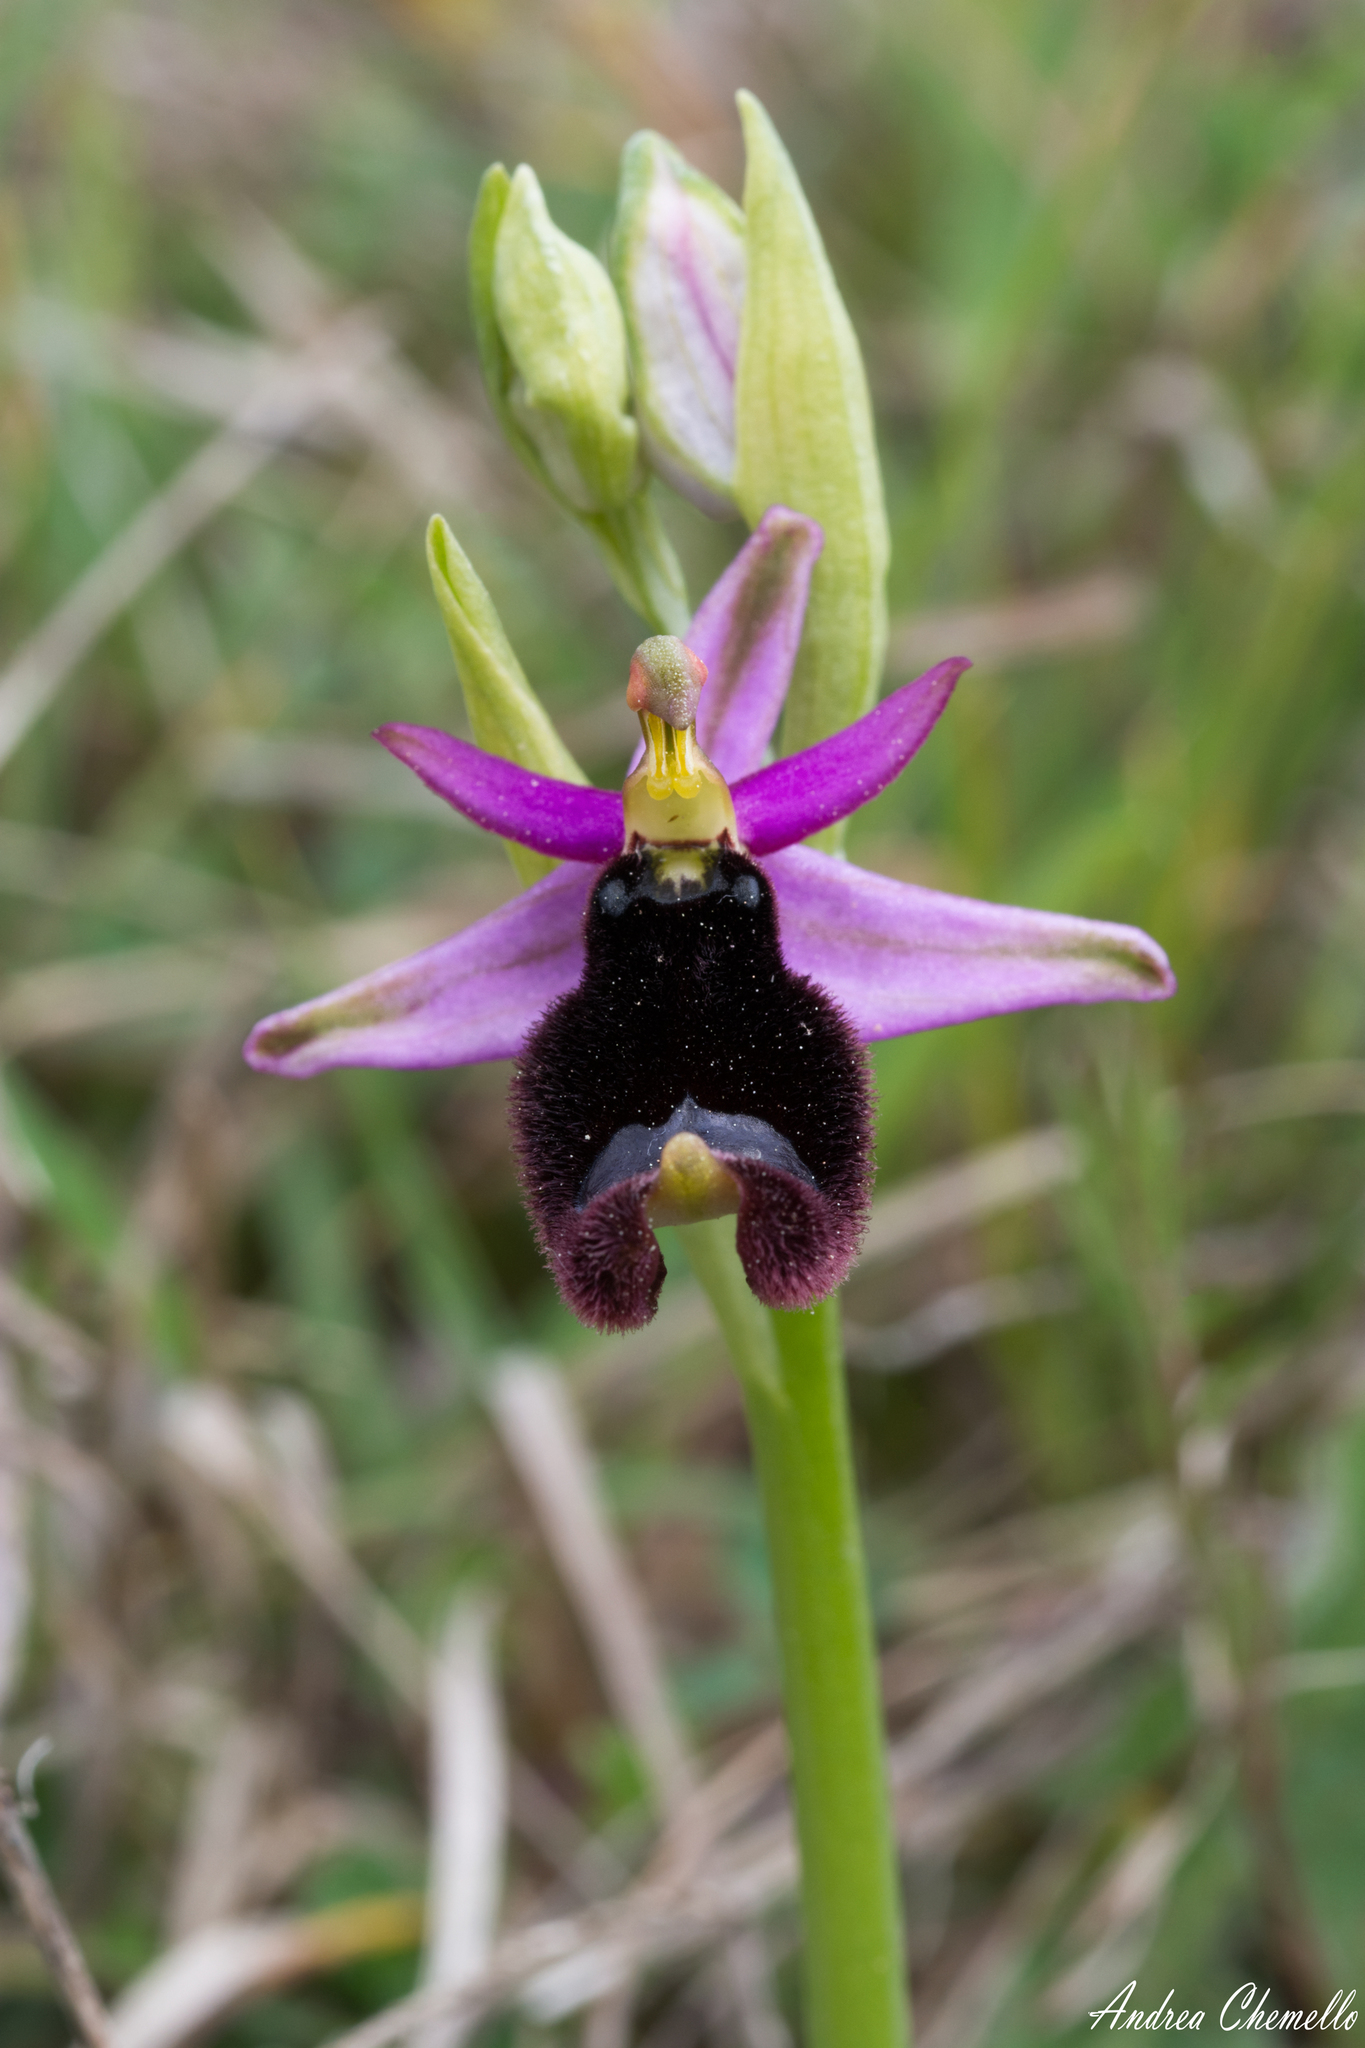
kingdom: Plantae
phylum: Tracheophyta
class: Liliopsida
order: Asparagales
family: Orchidaceae
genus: Ophrys
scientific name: Ophrys bertolonii
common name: Bertoloni's bee orchid
